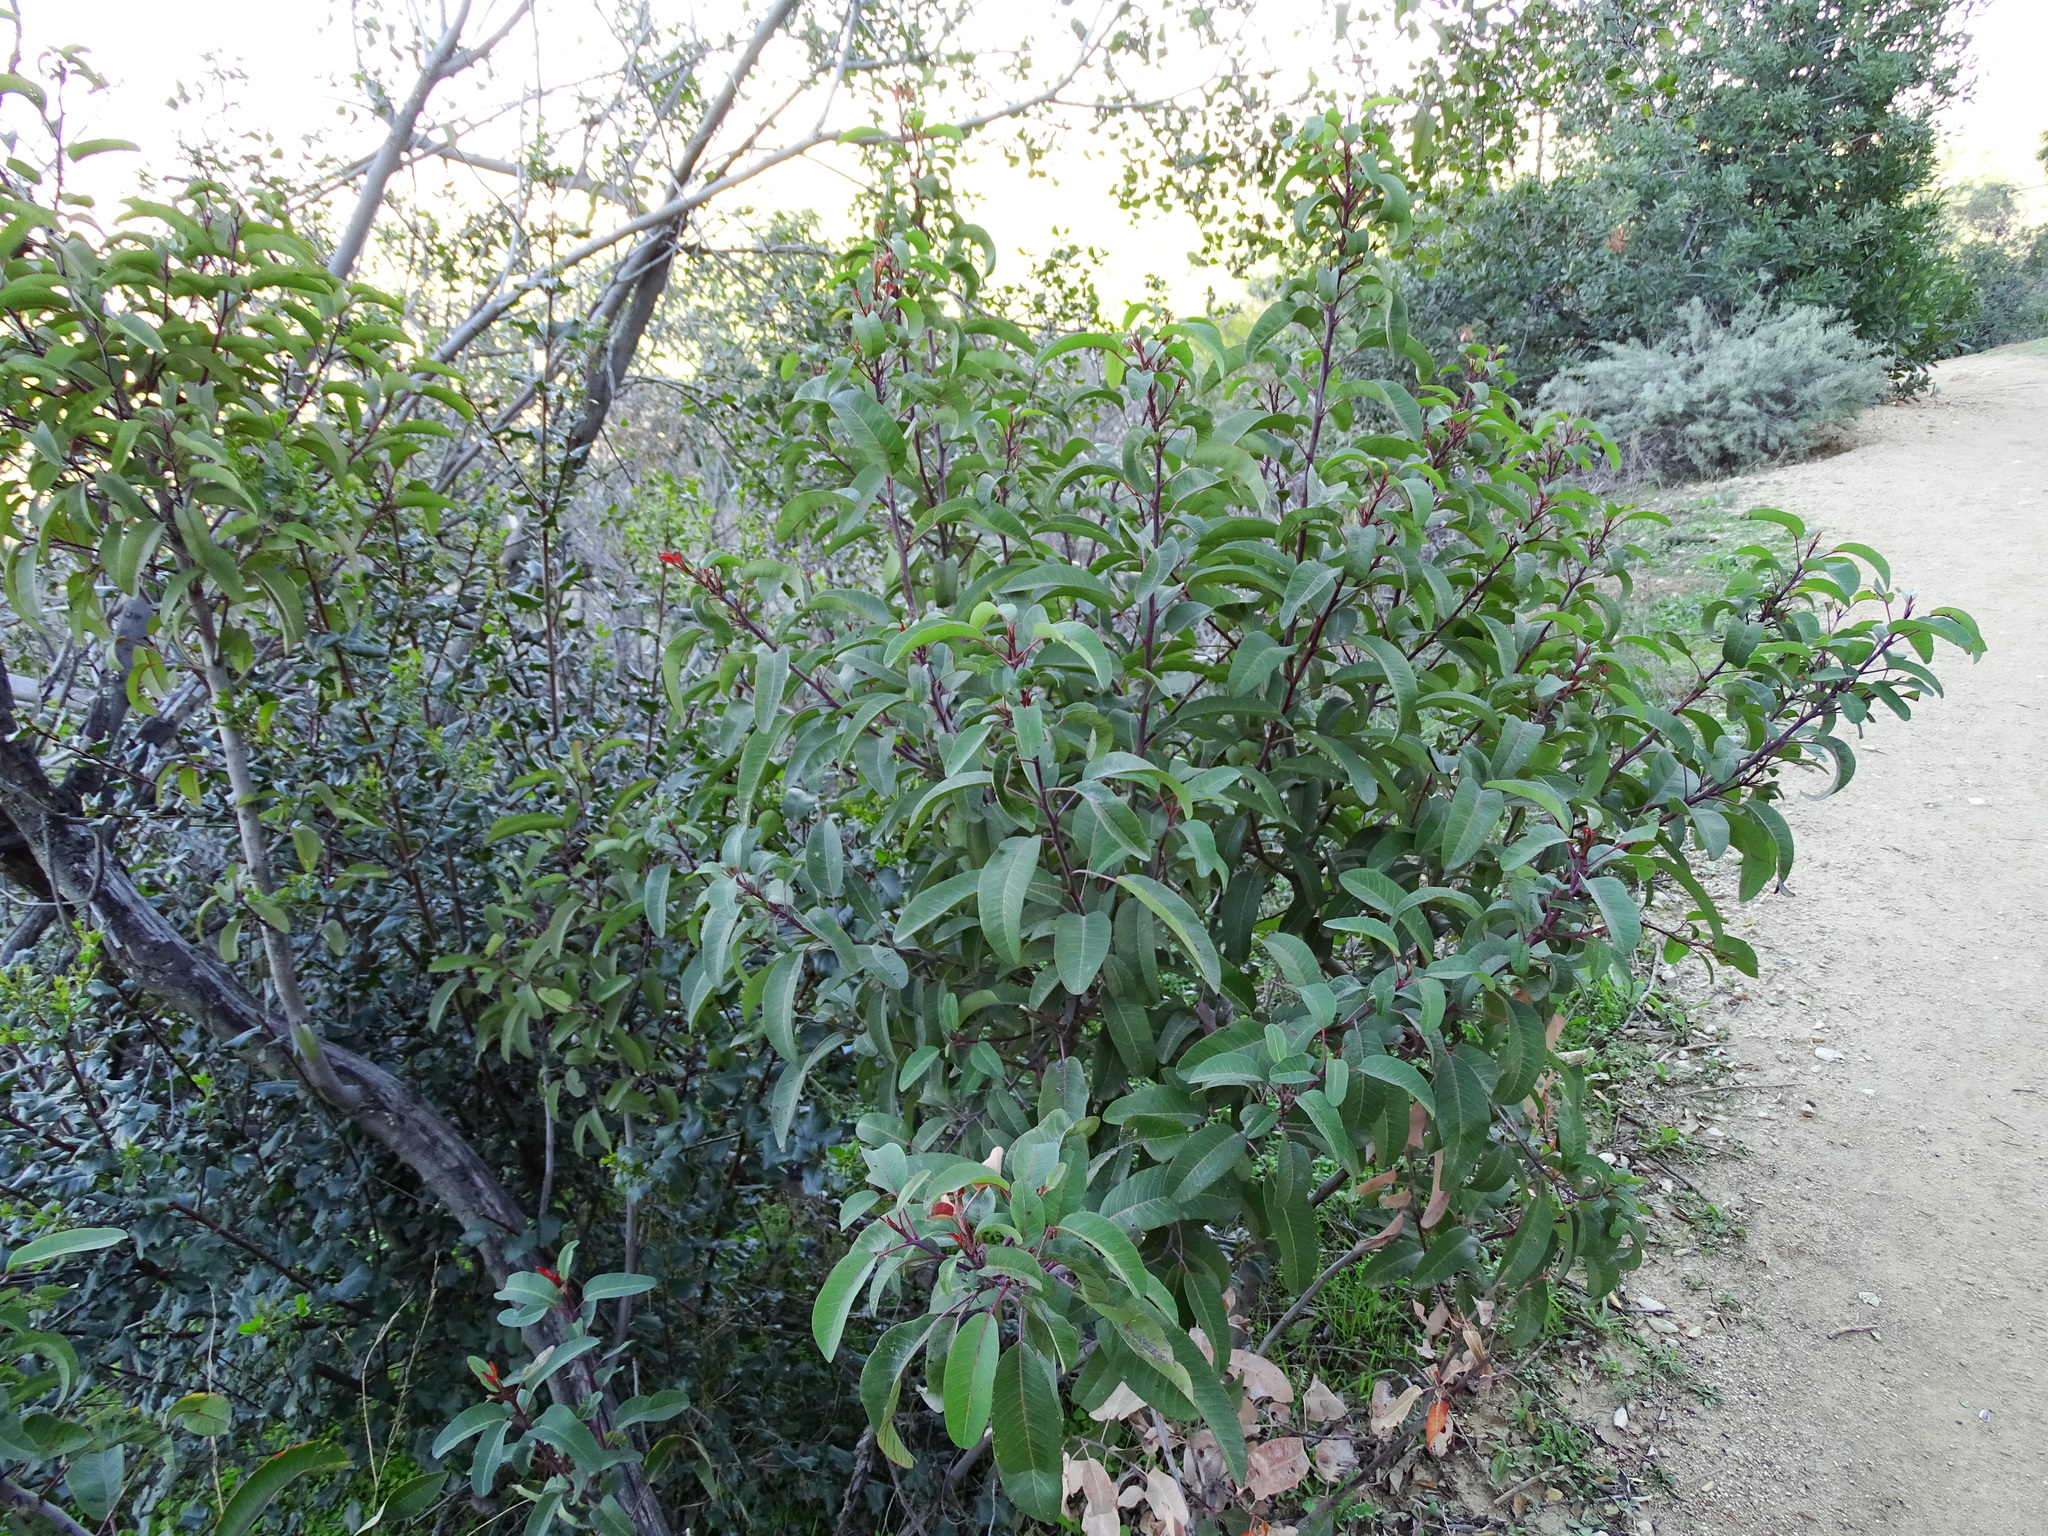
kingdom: Plantae
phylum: Tracheophyta
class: Magnoliopsida
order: Sapindales
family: Anacardiaceae
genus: Malosma
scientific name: Malosma laurina
